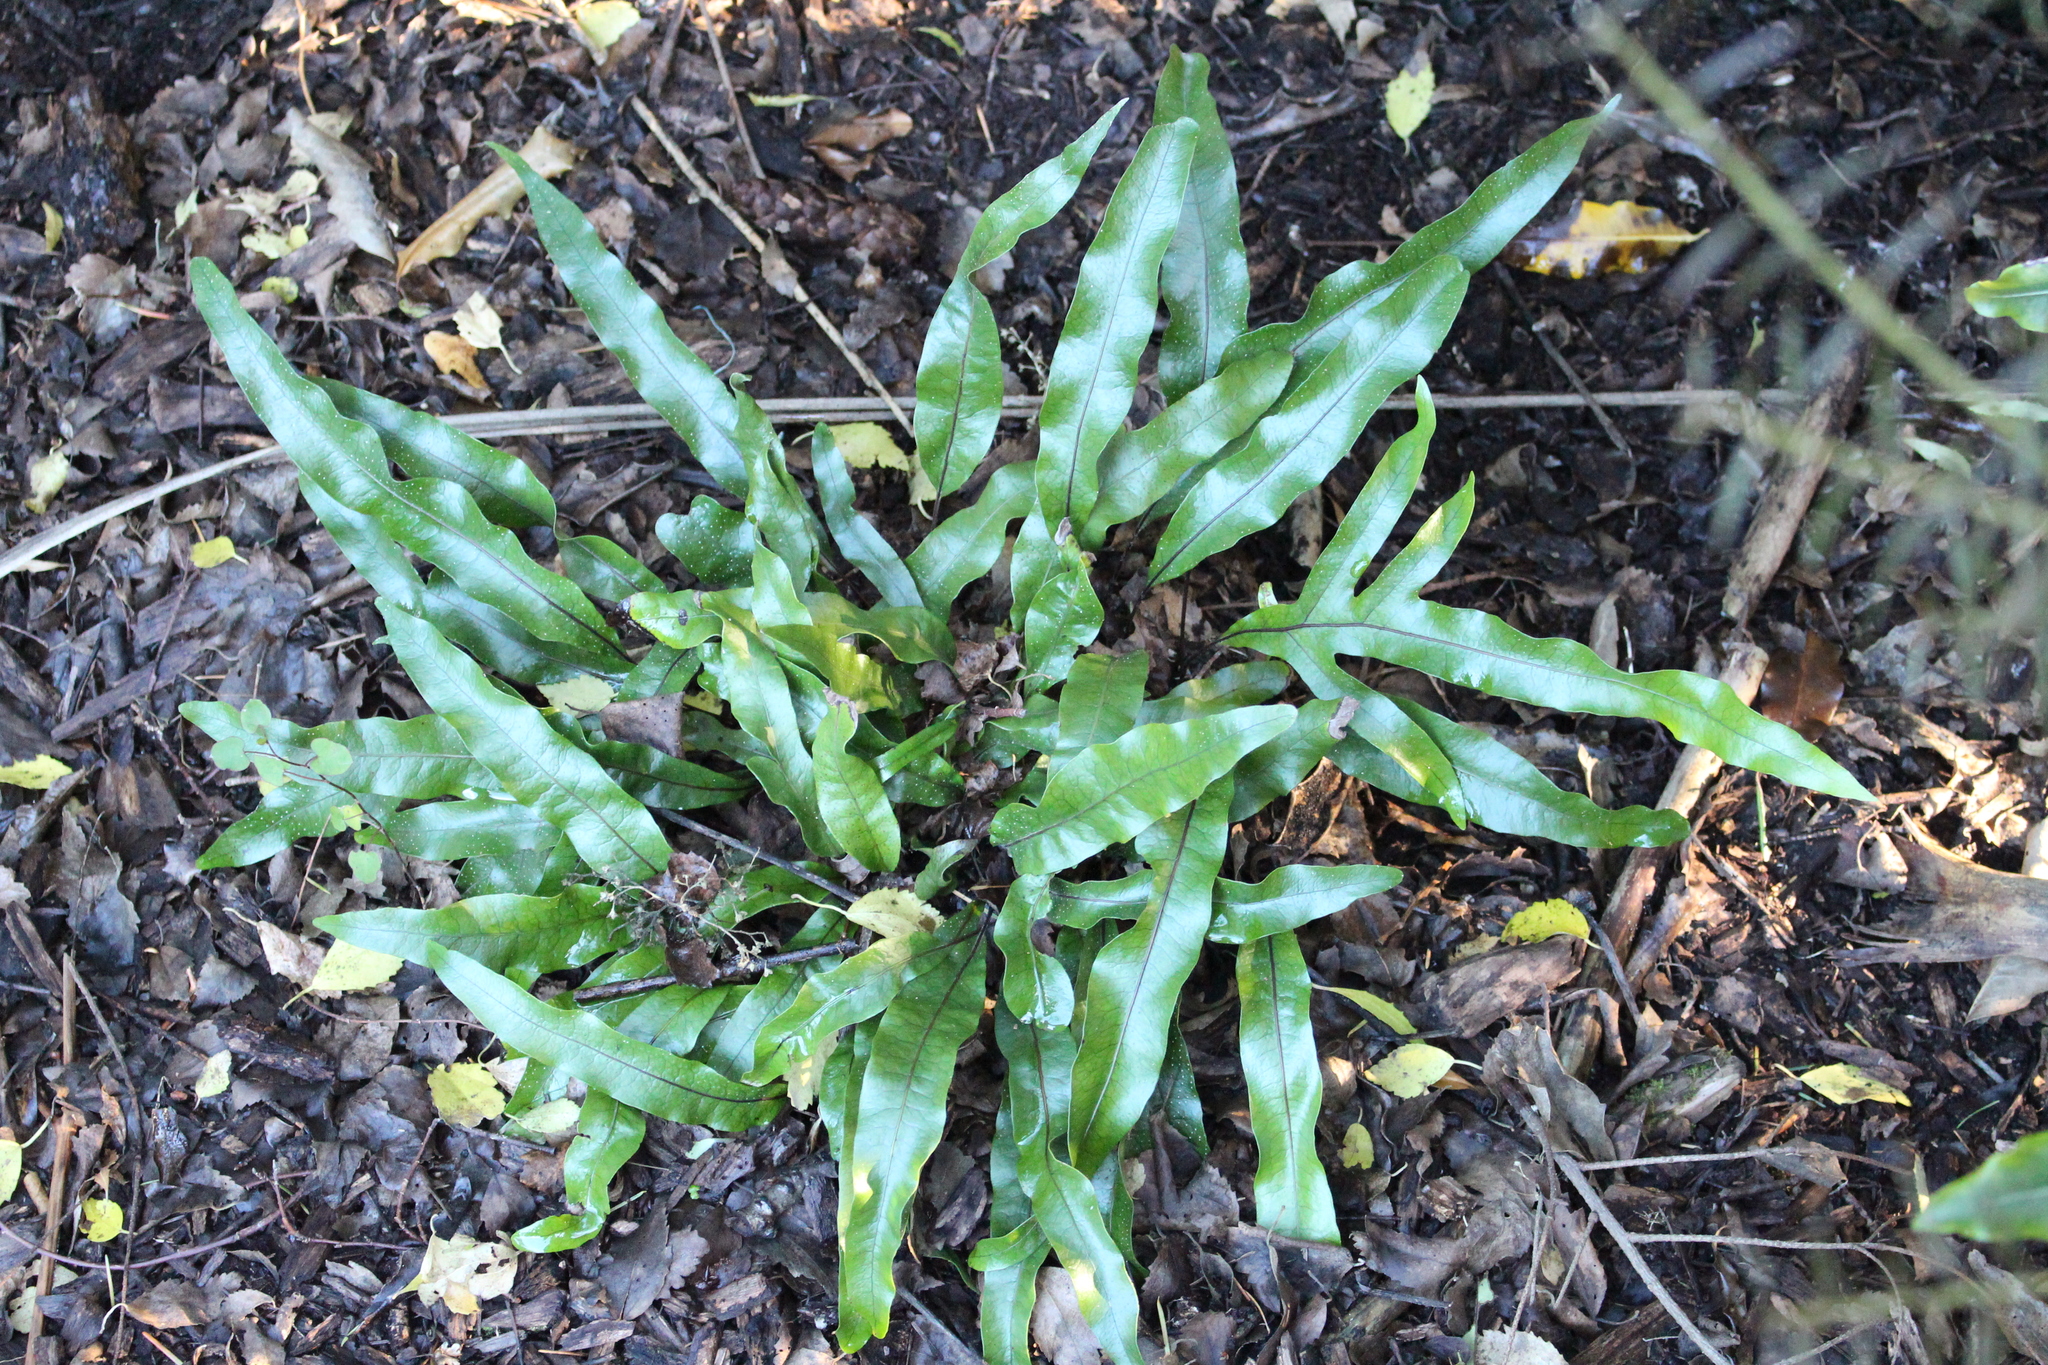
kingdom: Plantae
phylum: Tracheophyta
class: Polypodiopsida
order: Polypodiales
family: Polypodiaceae
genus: Lecanopteris
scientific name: Lecanopteris pustulata
